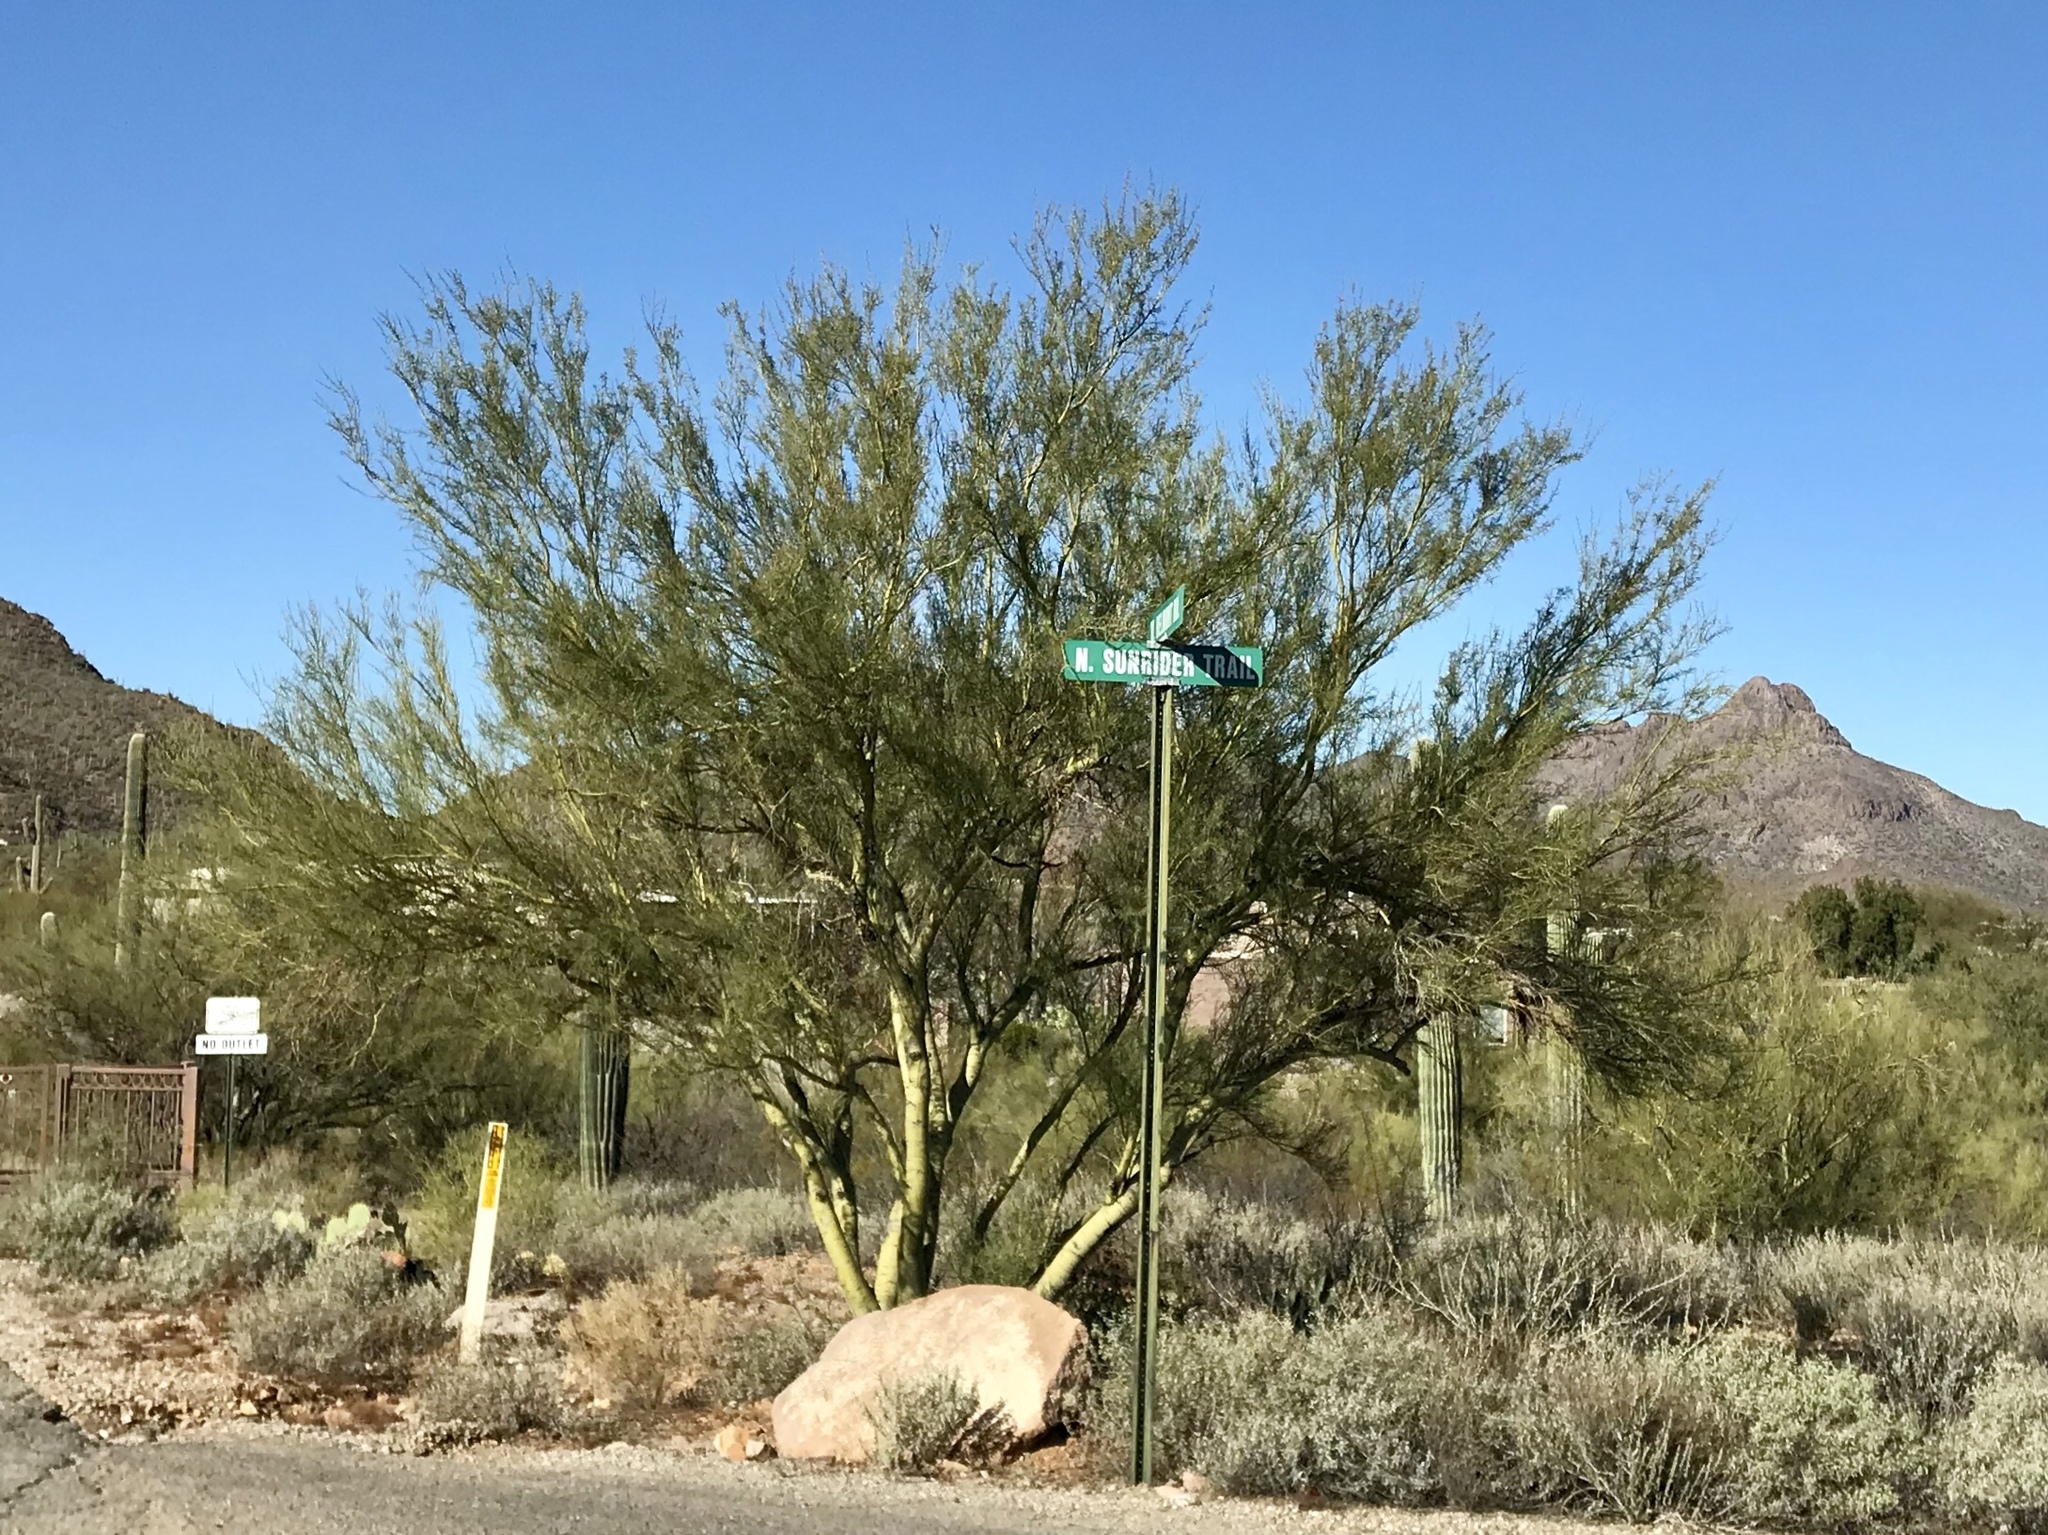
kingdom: Plantae
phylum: Tracheophyta
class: Magnoliopsida
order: Fabales
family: Fabaceae
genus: Parkinsonia
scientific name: Parkinsonia microphylla
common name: Yellow paloverde
